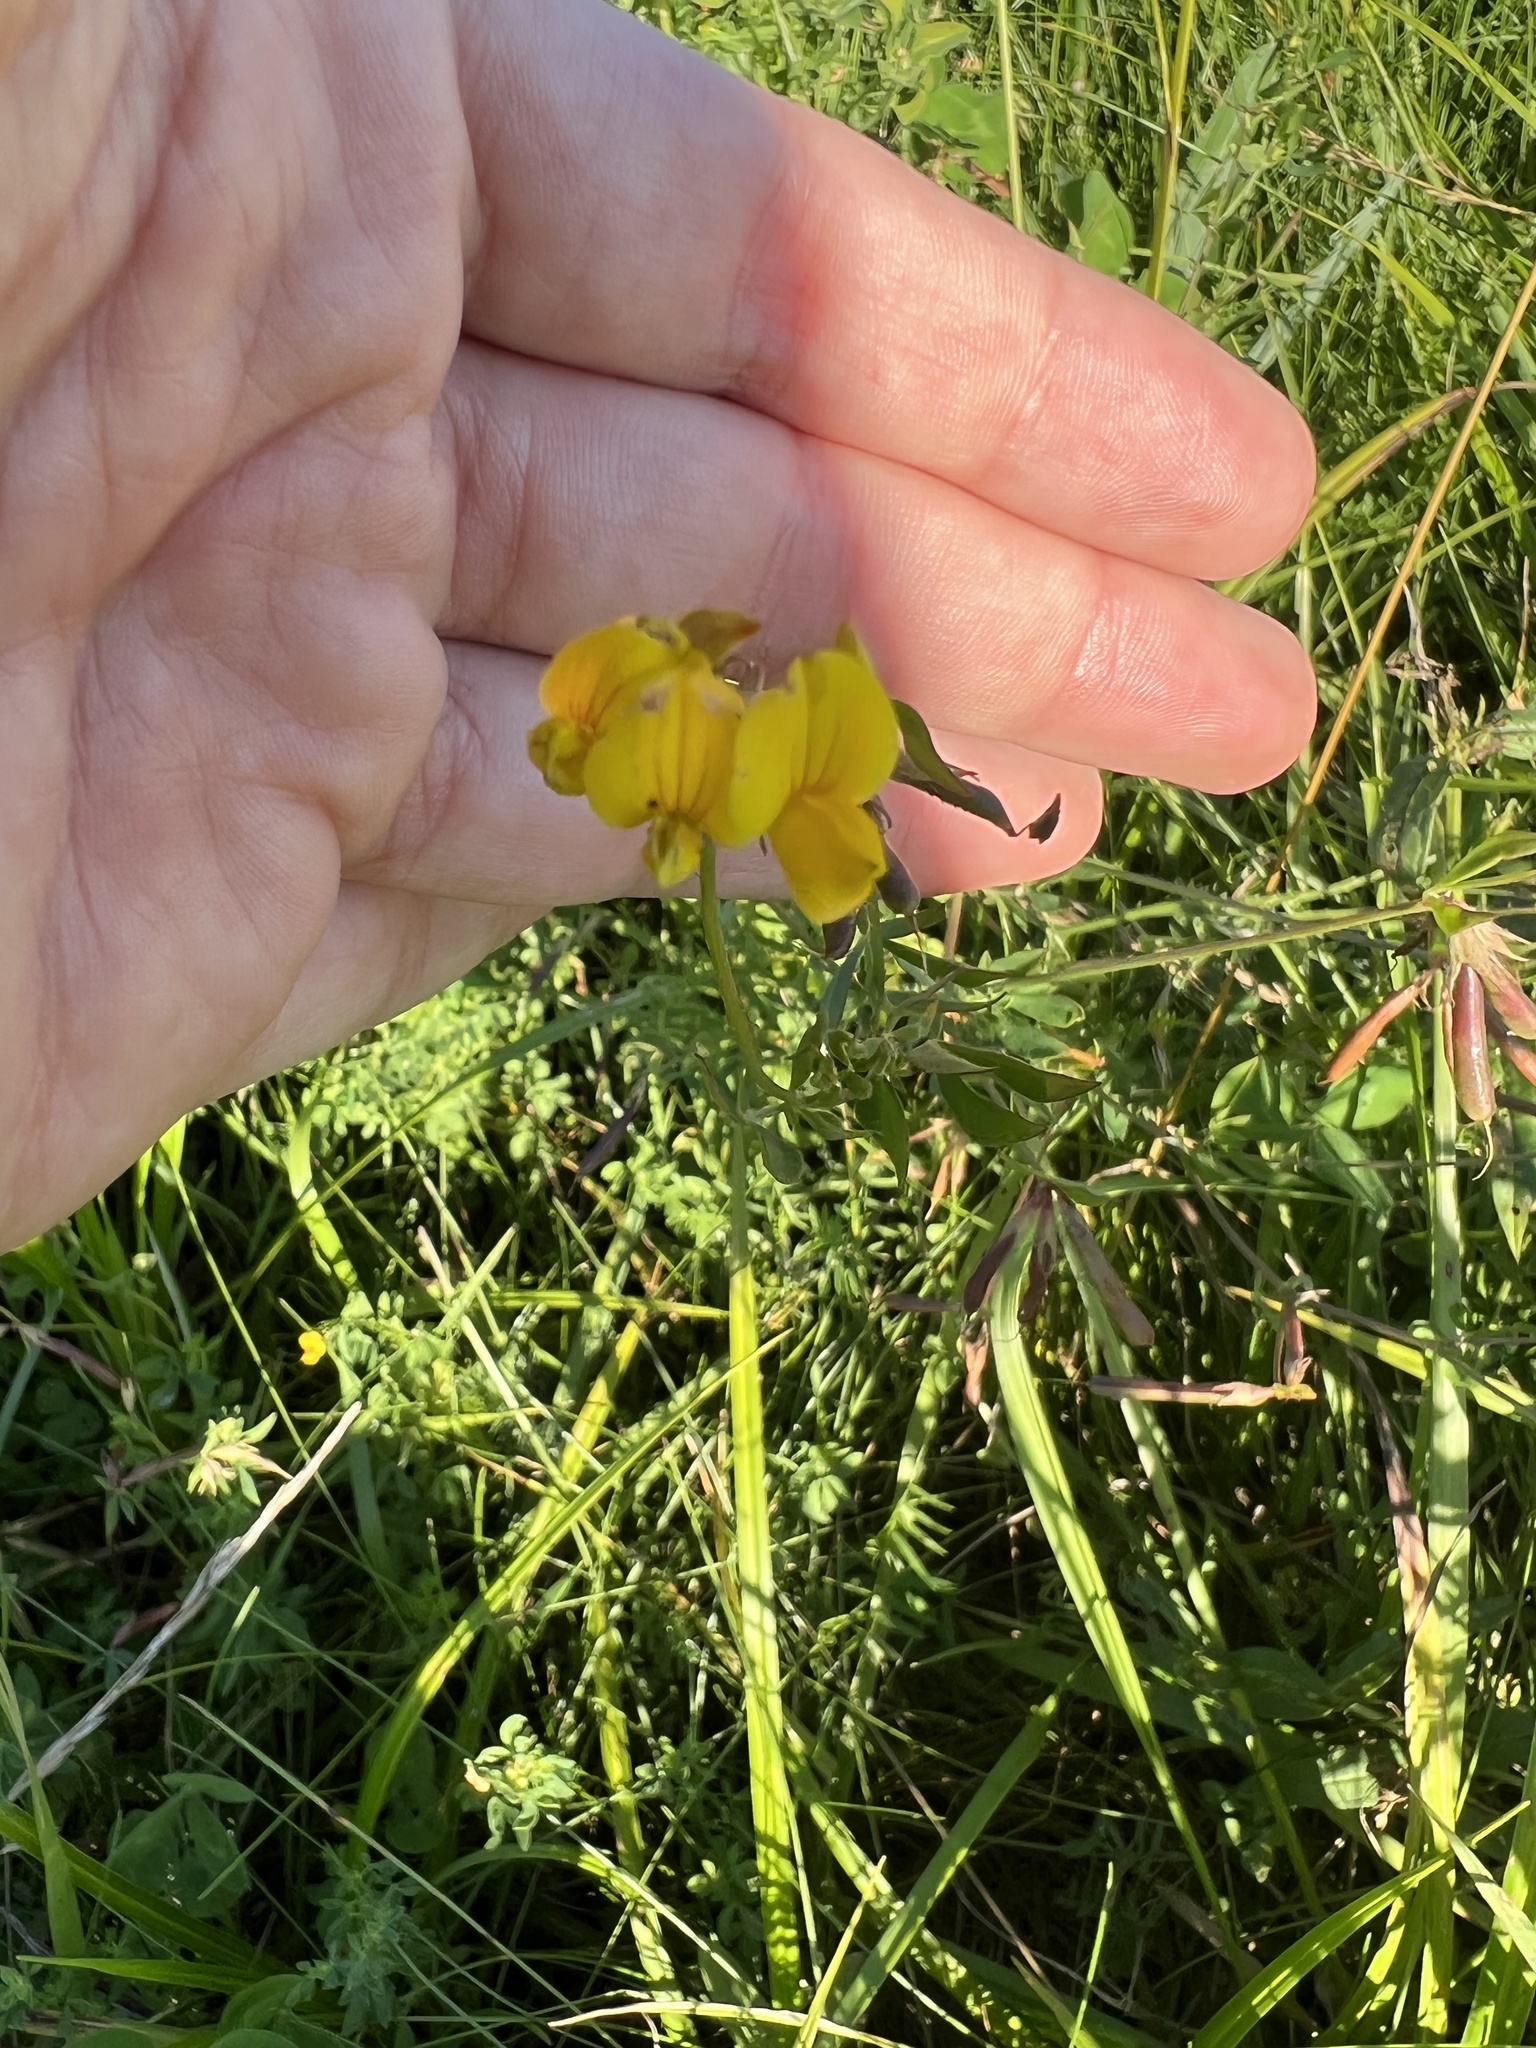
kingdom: Plantae
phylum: Tracheophyta
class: Magnoliopsida
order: Fabales
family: Fabaceae
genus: Lotus
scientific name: Lotus corniculatus
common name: Common bird's-foot-trefoil
